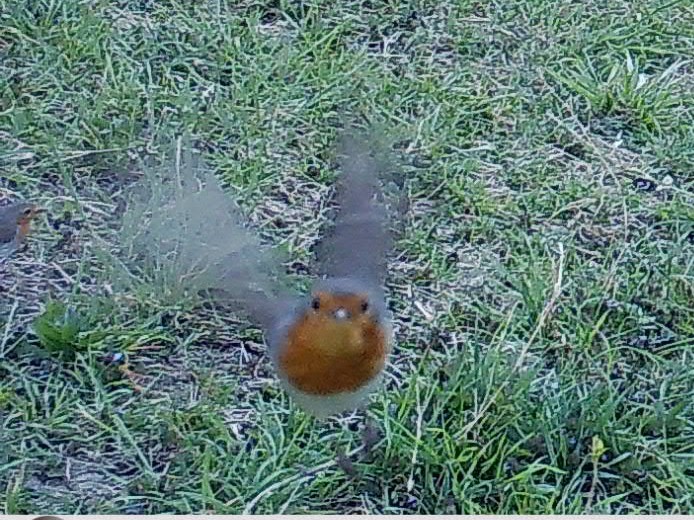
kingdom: Animalia
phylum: Chordata
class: Aves
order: Passeriformes
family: Muscicapidae
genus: Erithacus
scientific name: Erithacus rubecula
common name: European robin
